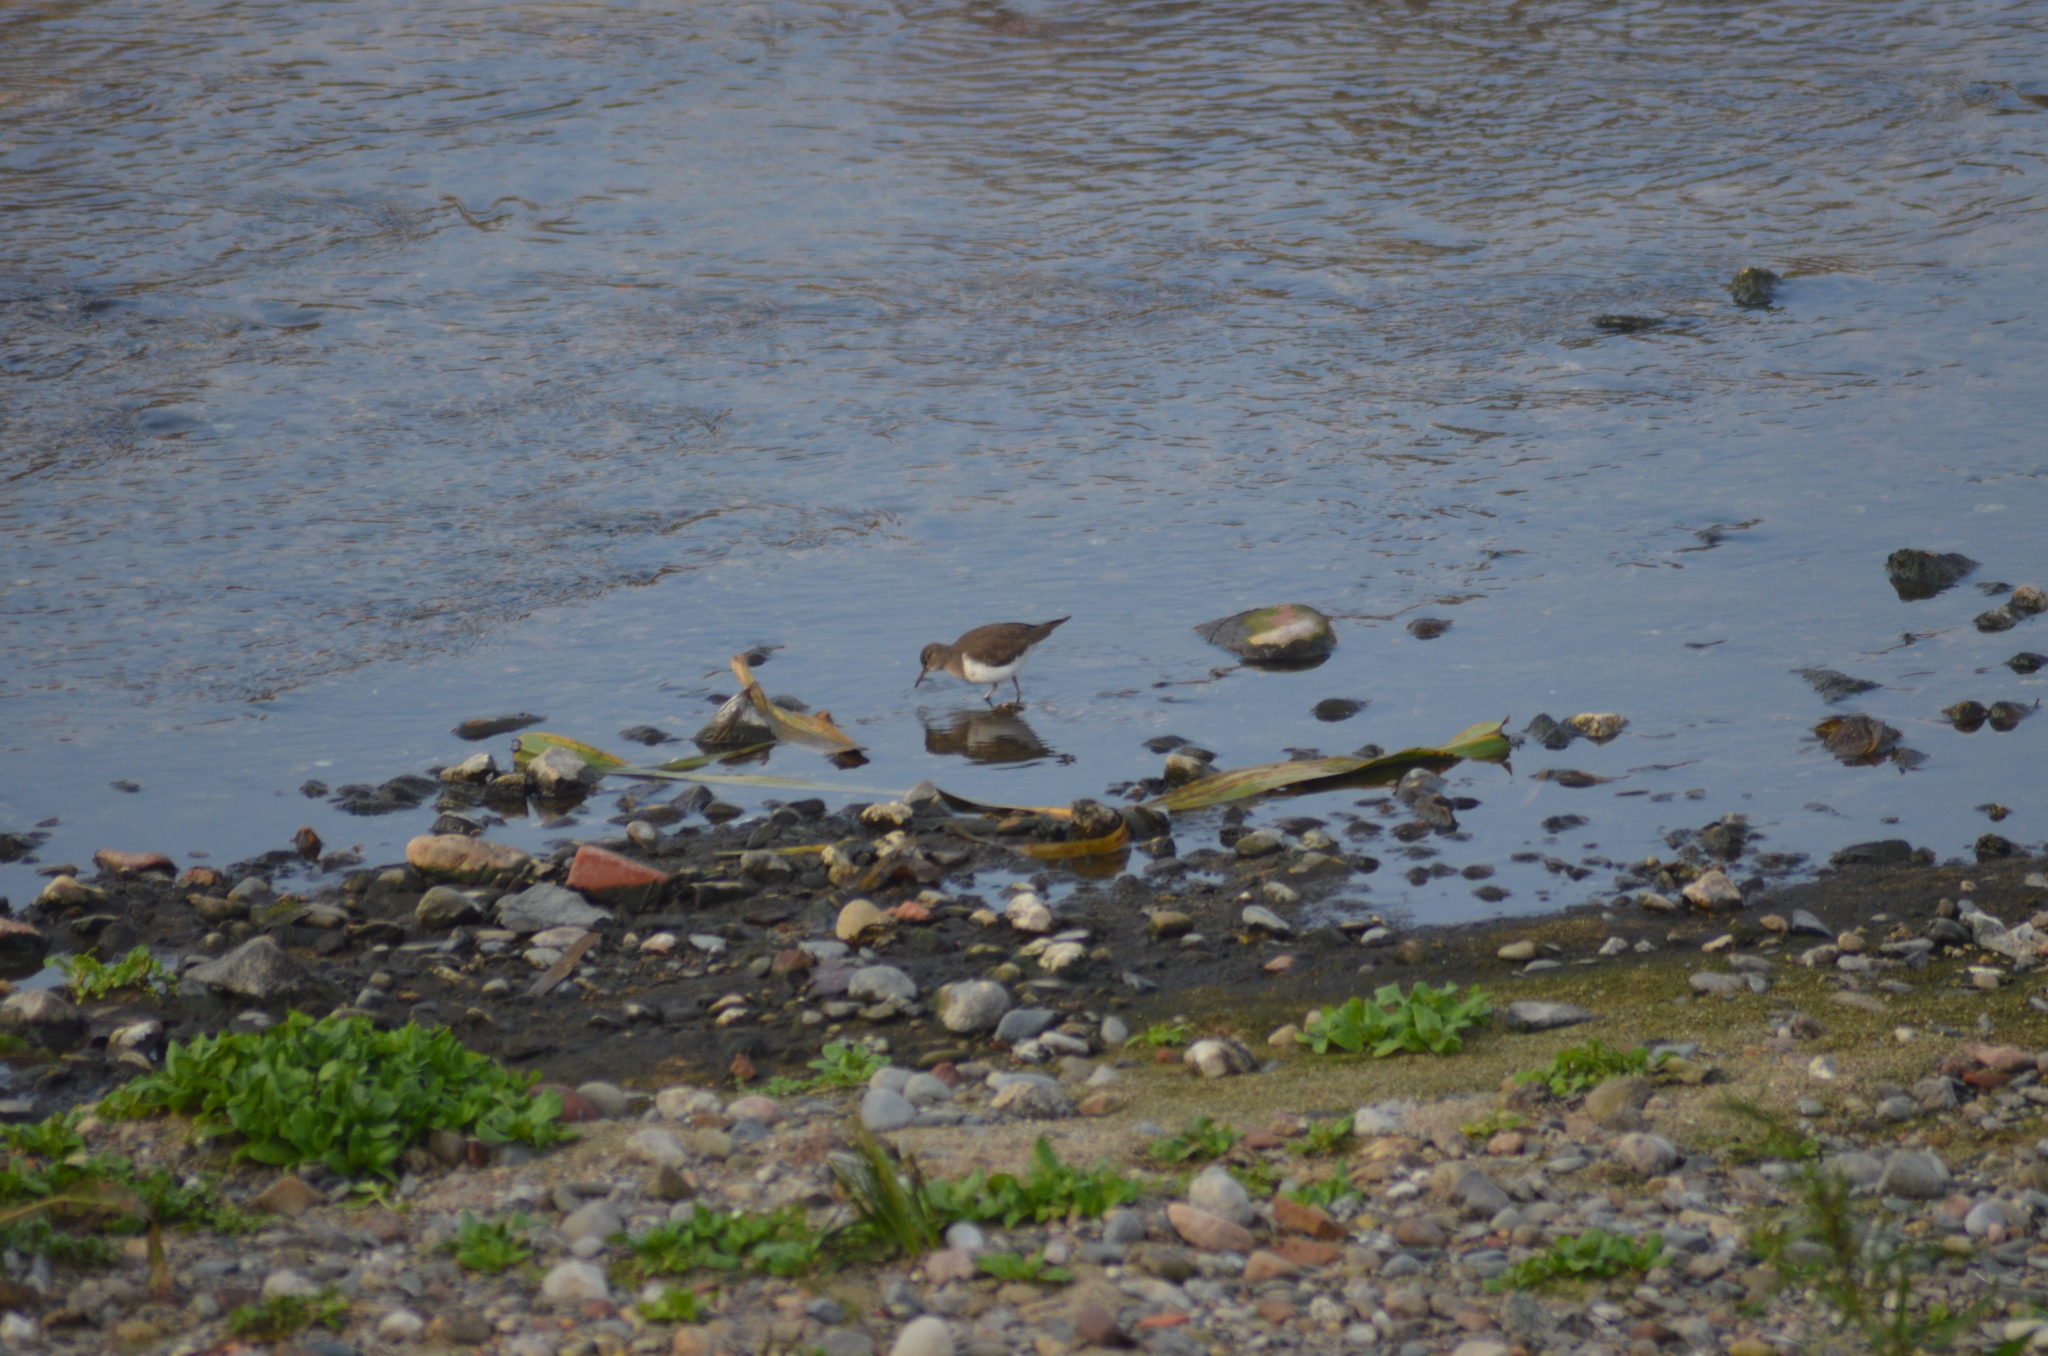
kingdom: Animalia
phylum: Chordata
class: Aves
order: Charadriiformes
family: Scolopacidae
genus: Actitis
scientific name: Actitis hypoleucos
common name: Common sandpiper
